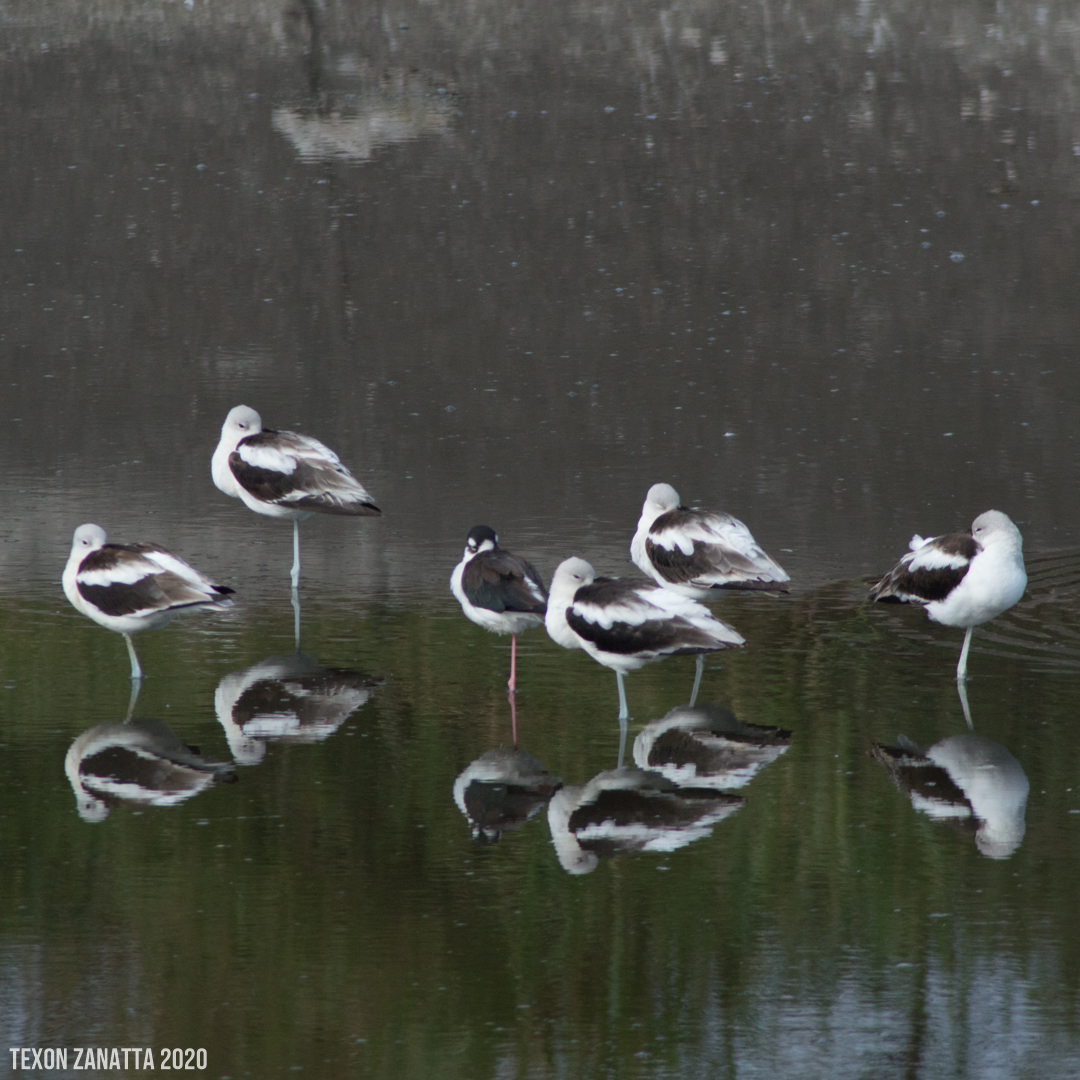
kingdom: Animalia
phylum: Chordata
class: Aves
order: Charadriiformes
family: Recurvirostridae
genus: Recurvirostra
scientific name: Recurvirostra americana
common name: American avocet
